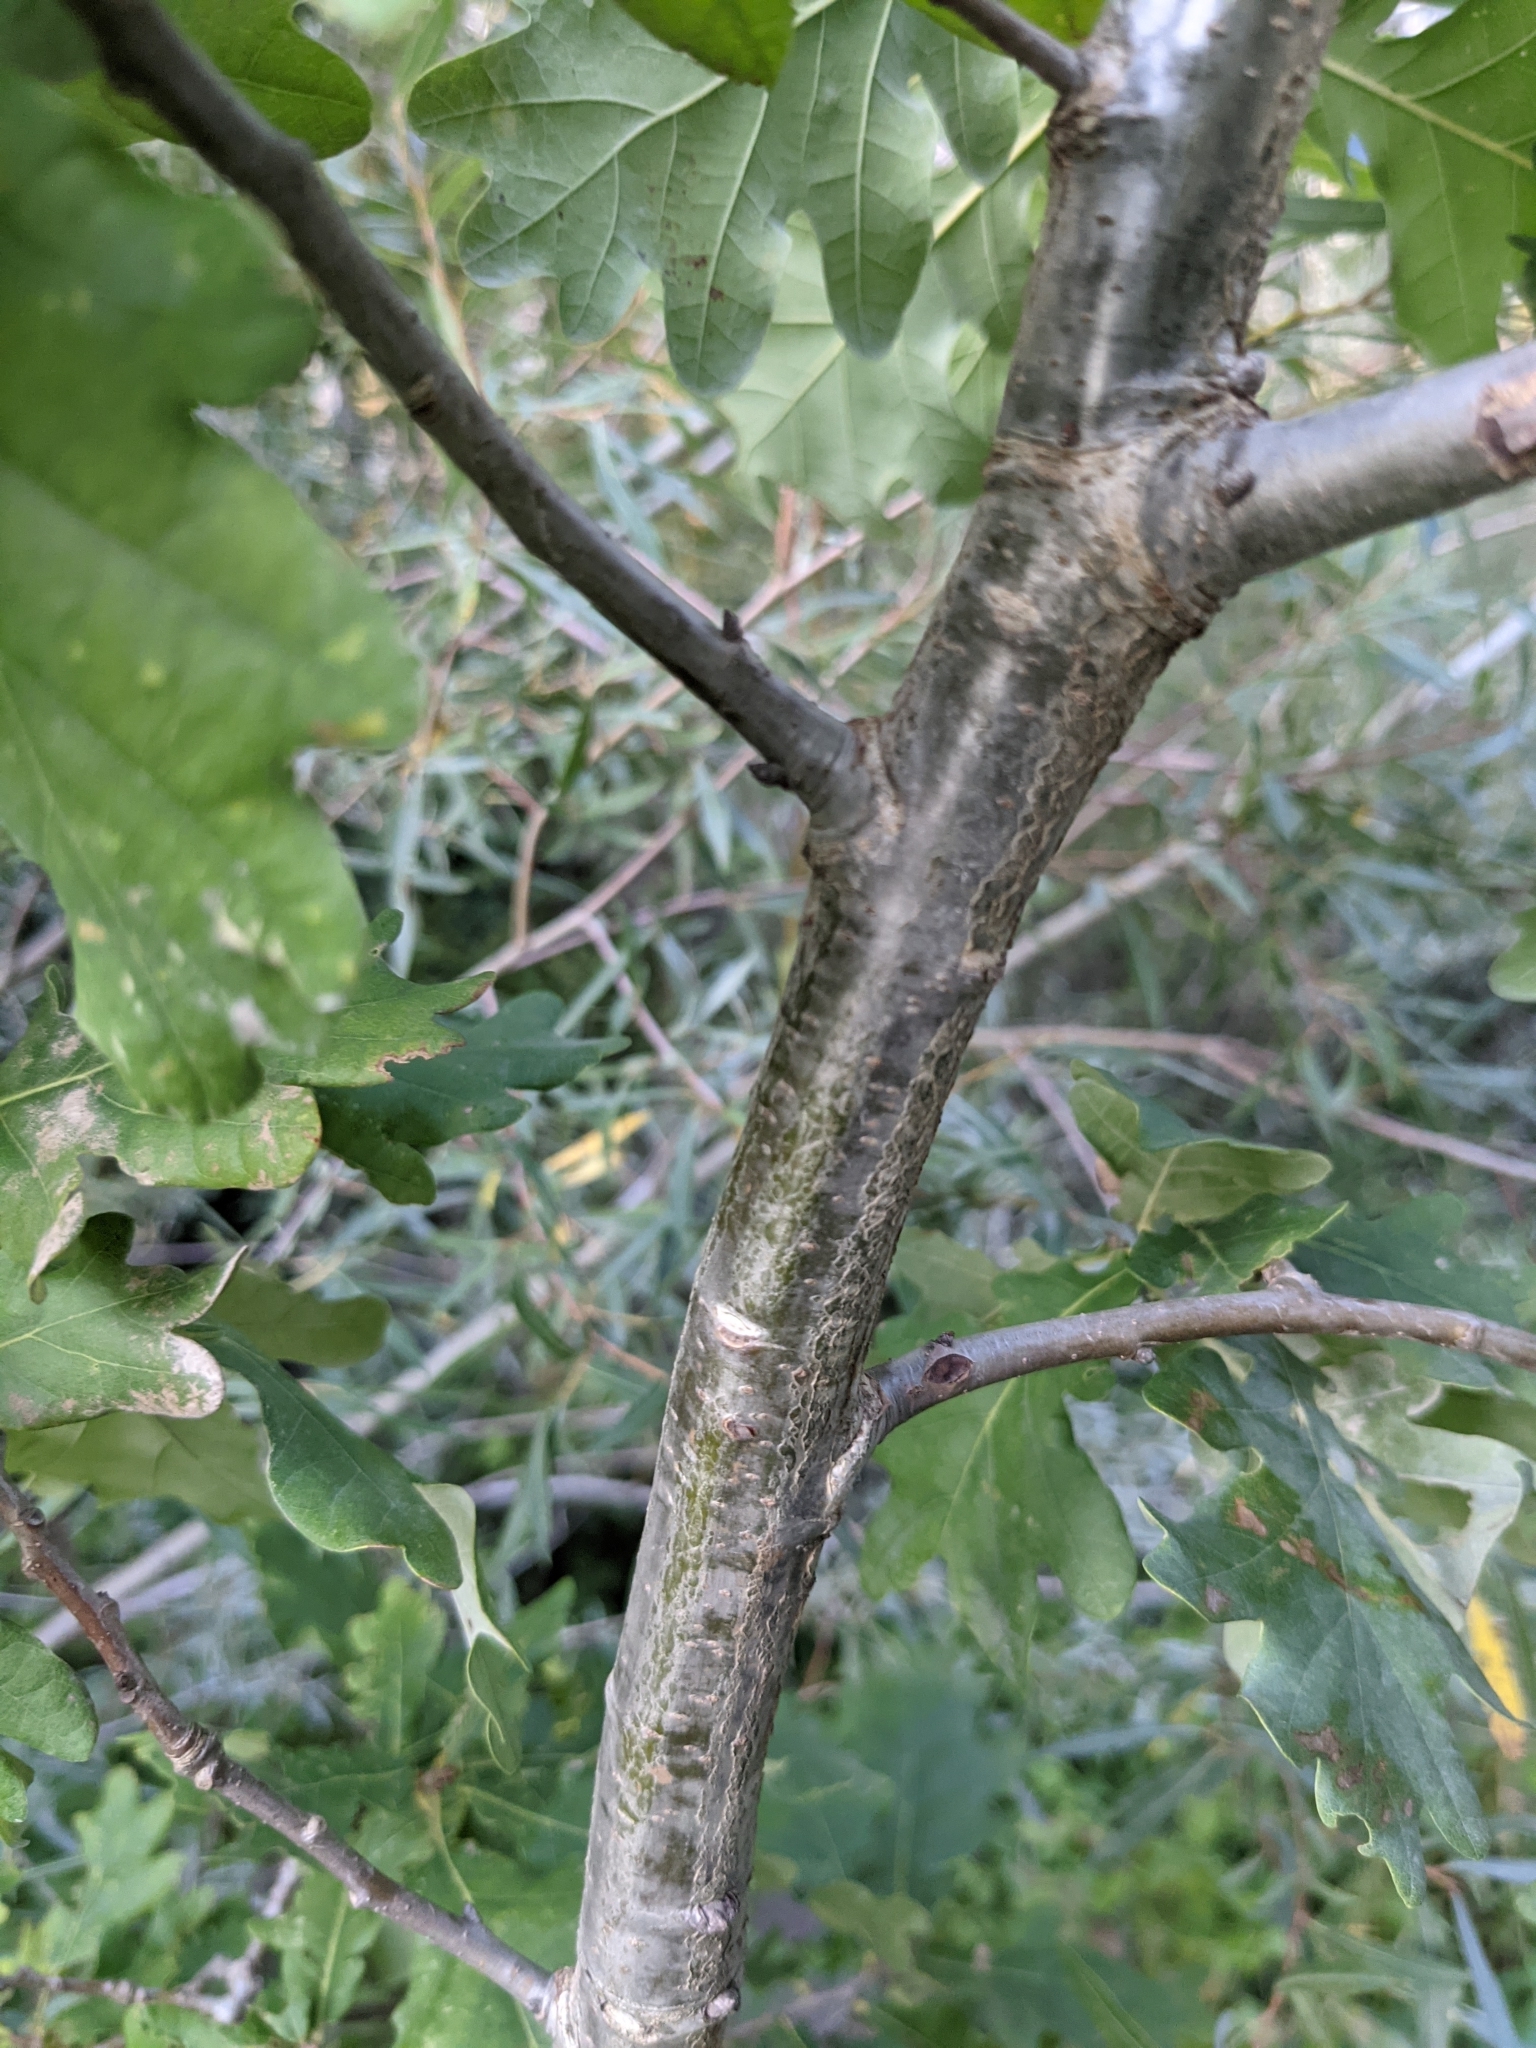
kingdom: Plantae
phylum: Tracheophyta
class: Magnoliopsida
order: Fagales
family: Fagaceae
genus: Quercus
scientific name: Quercus robur
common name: Pedunculate oak
